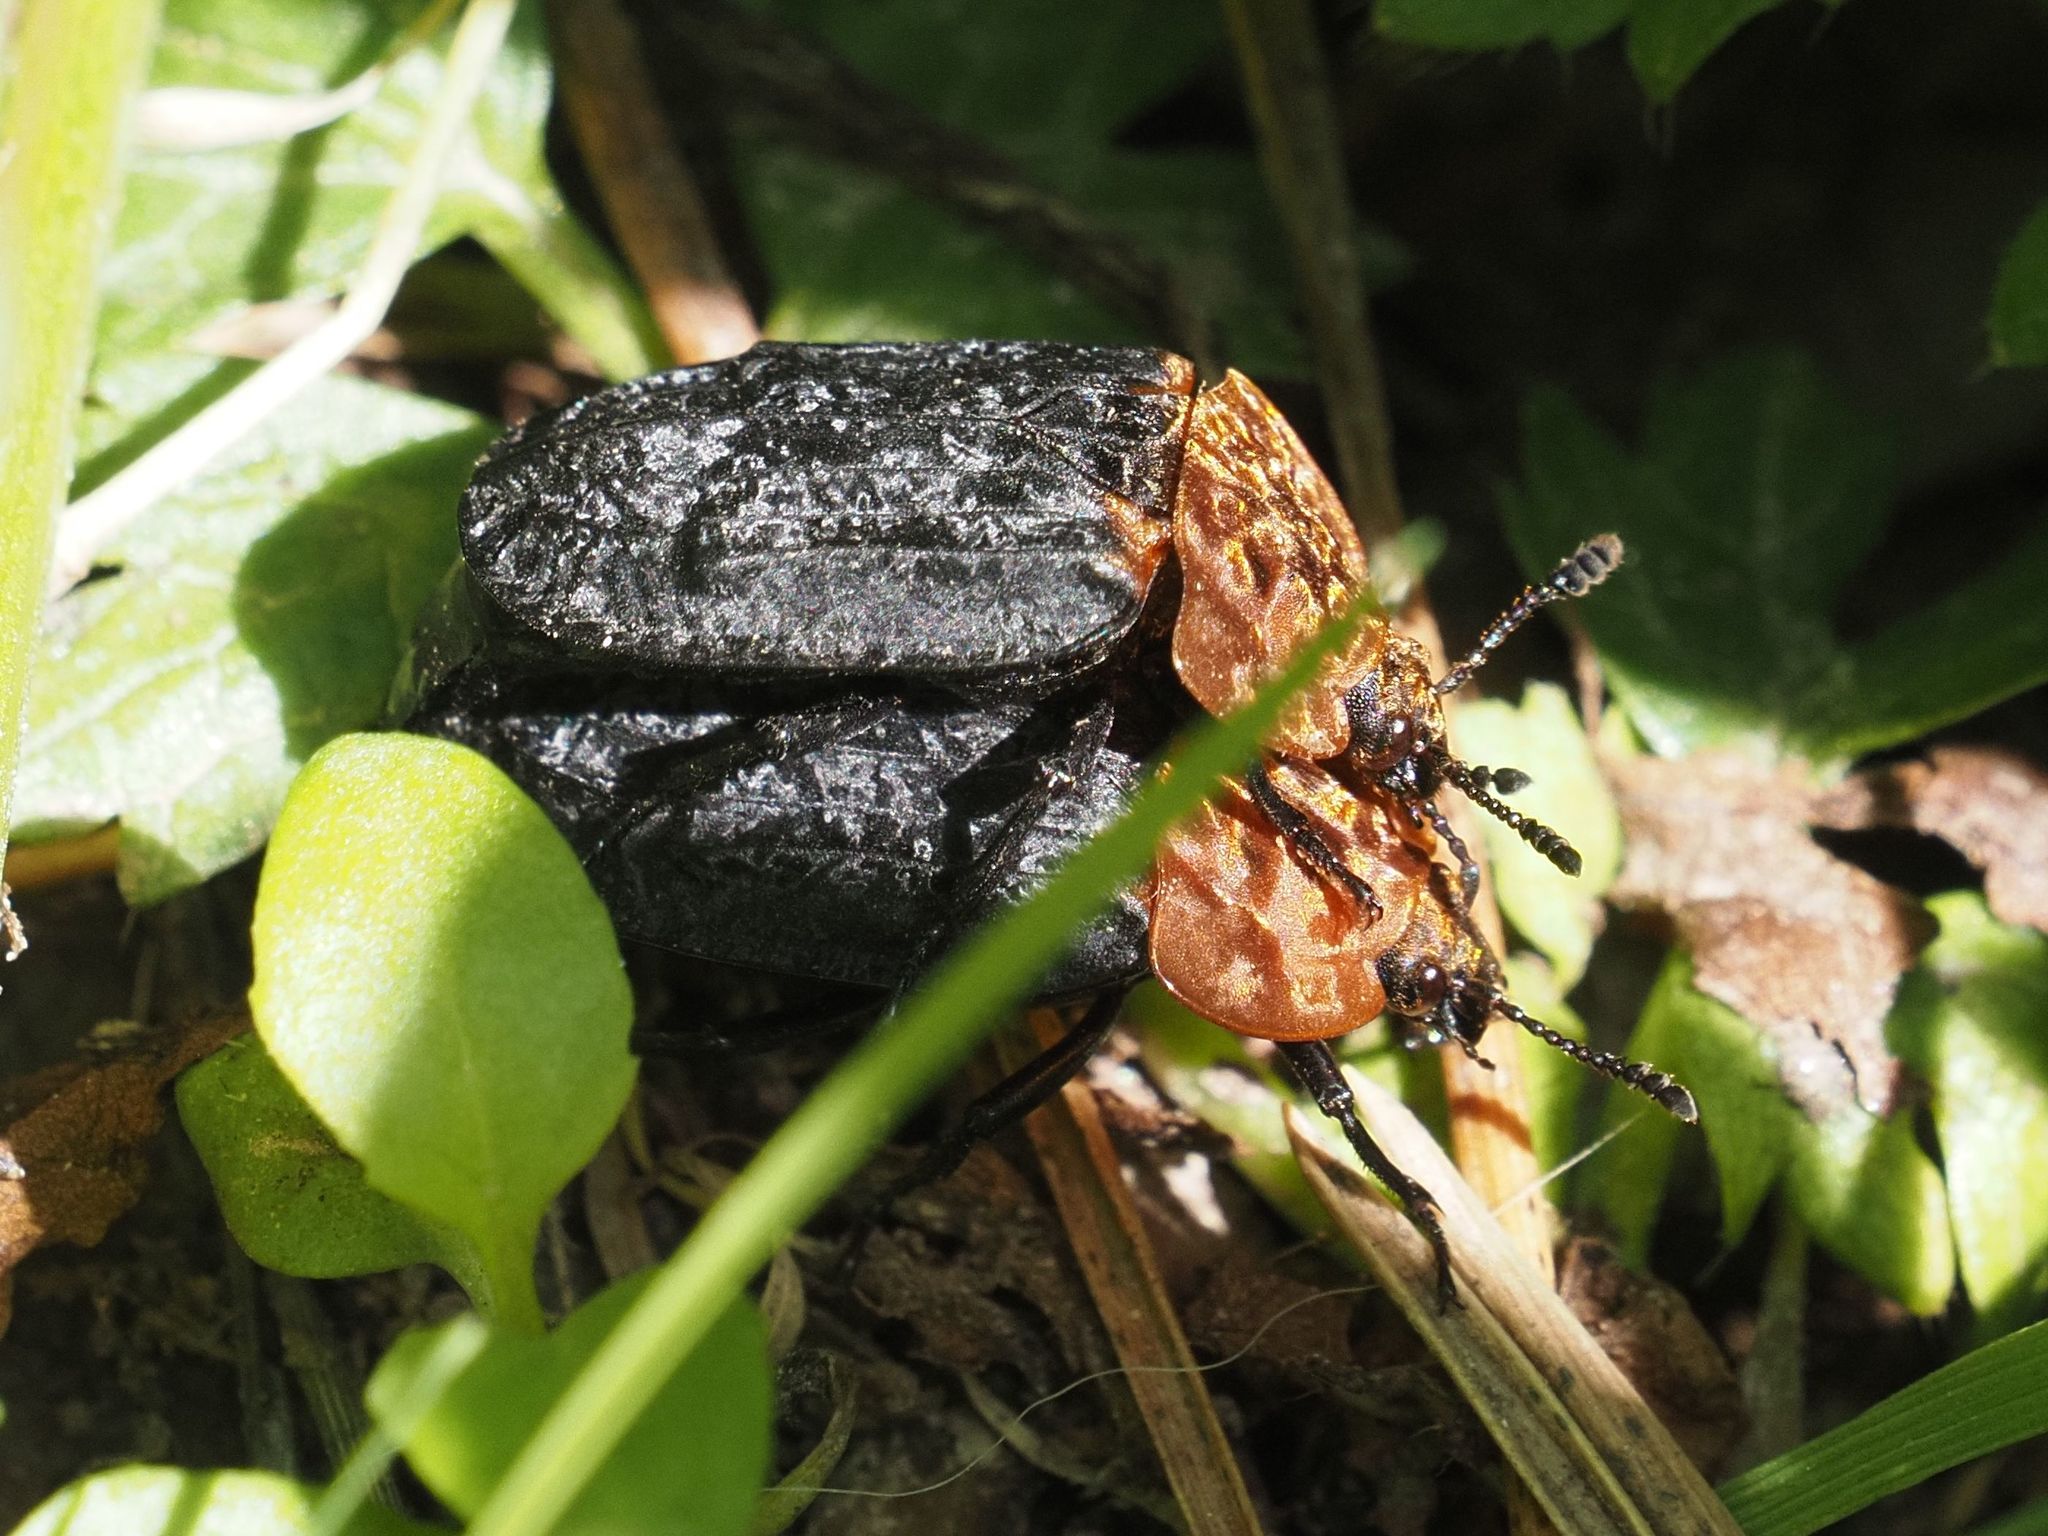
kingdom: Animalia
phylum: Arthropoda
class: Insecta
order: Coleoptera
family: Staphylinidae
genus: Oiceoptoma
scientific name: Oiceoptoma thoracicum
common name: Red-breasted carrion beetle
